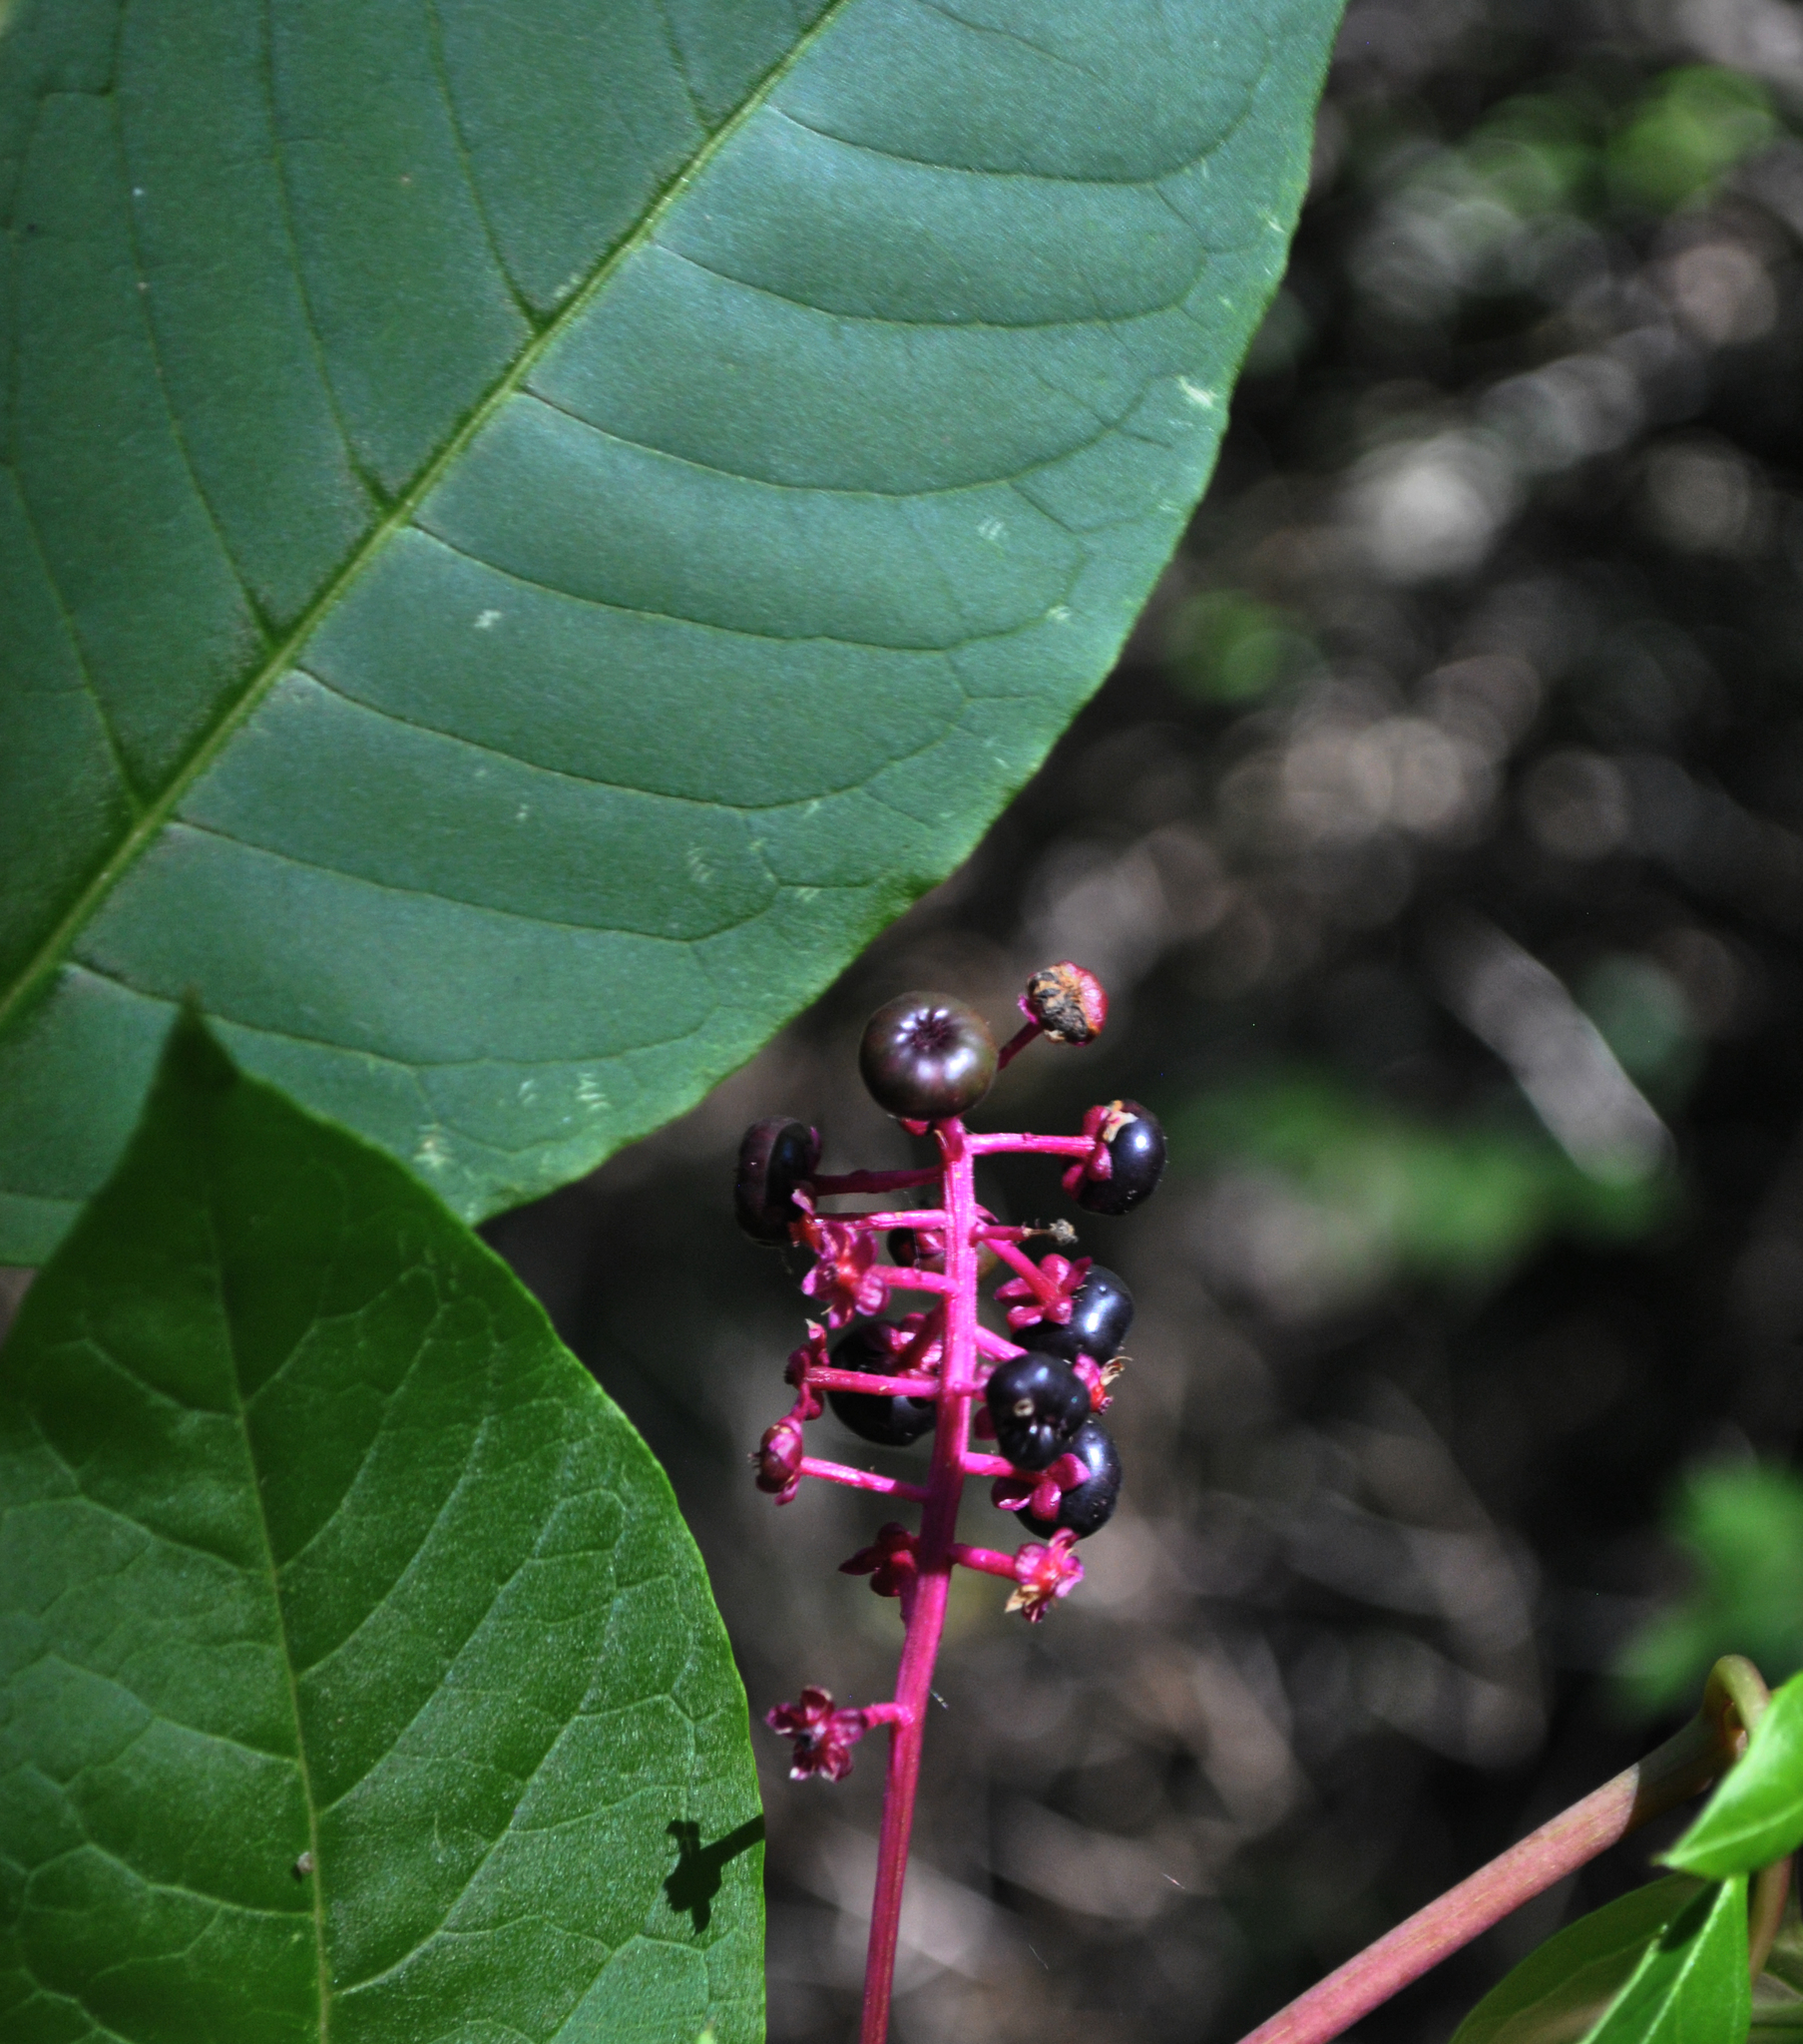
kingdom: Plantae
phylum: Tracheophyta
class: Magnoliopsida
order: Caryophyllales
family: Phytolaccaceae
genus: Phytolacca
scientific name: Phytolacca americana
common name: American pokeweed
